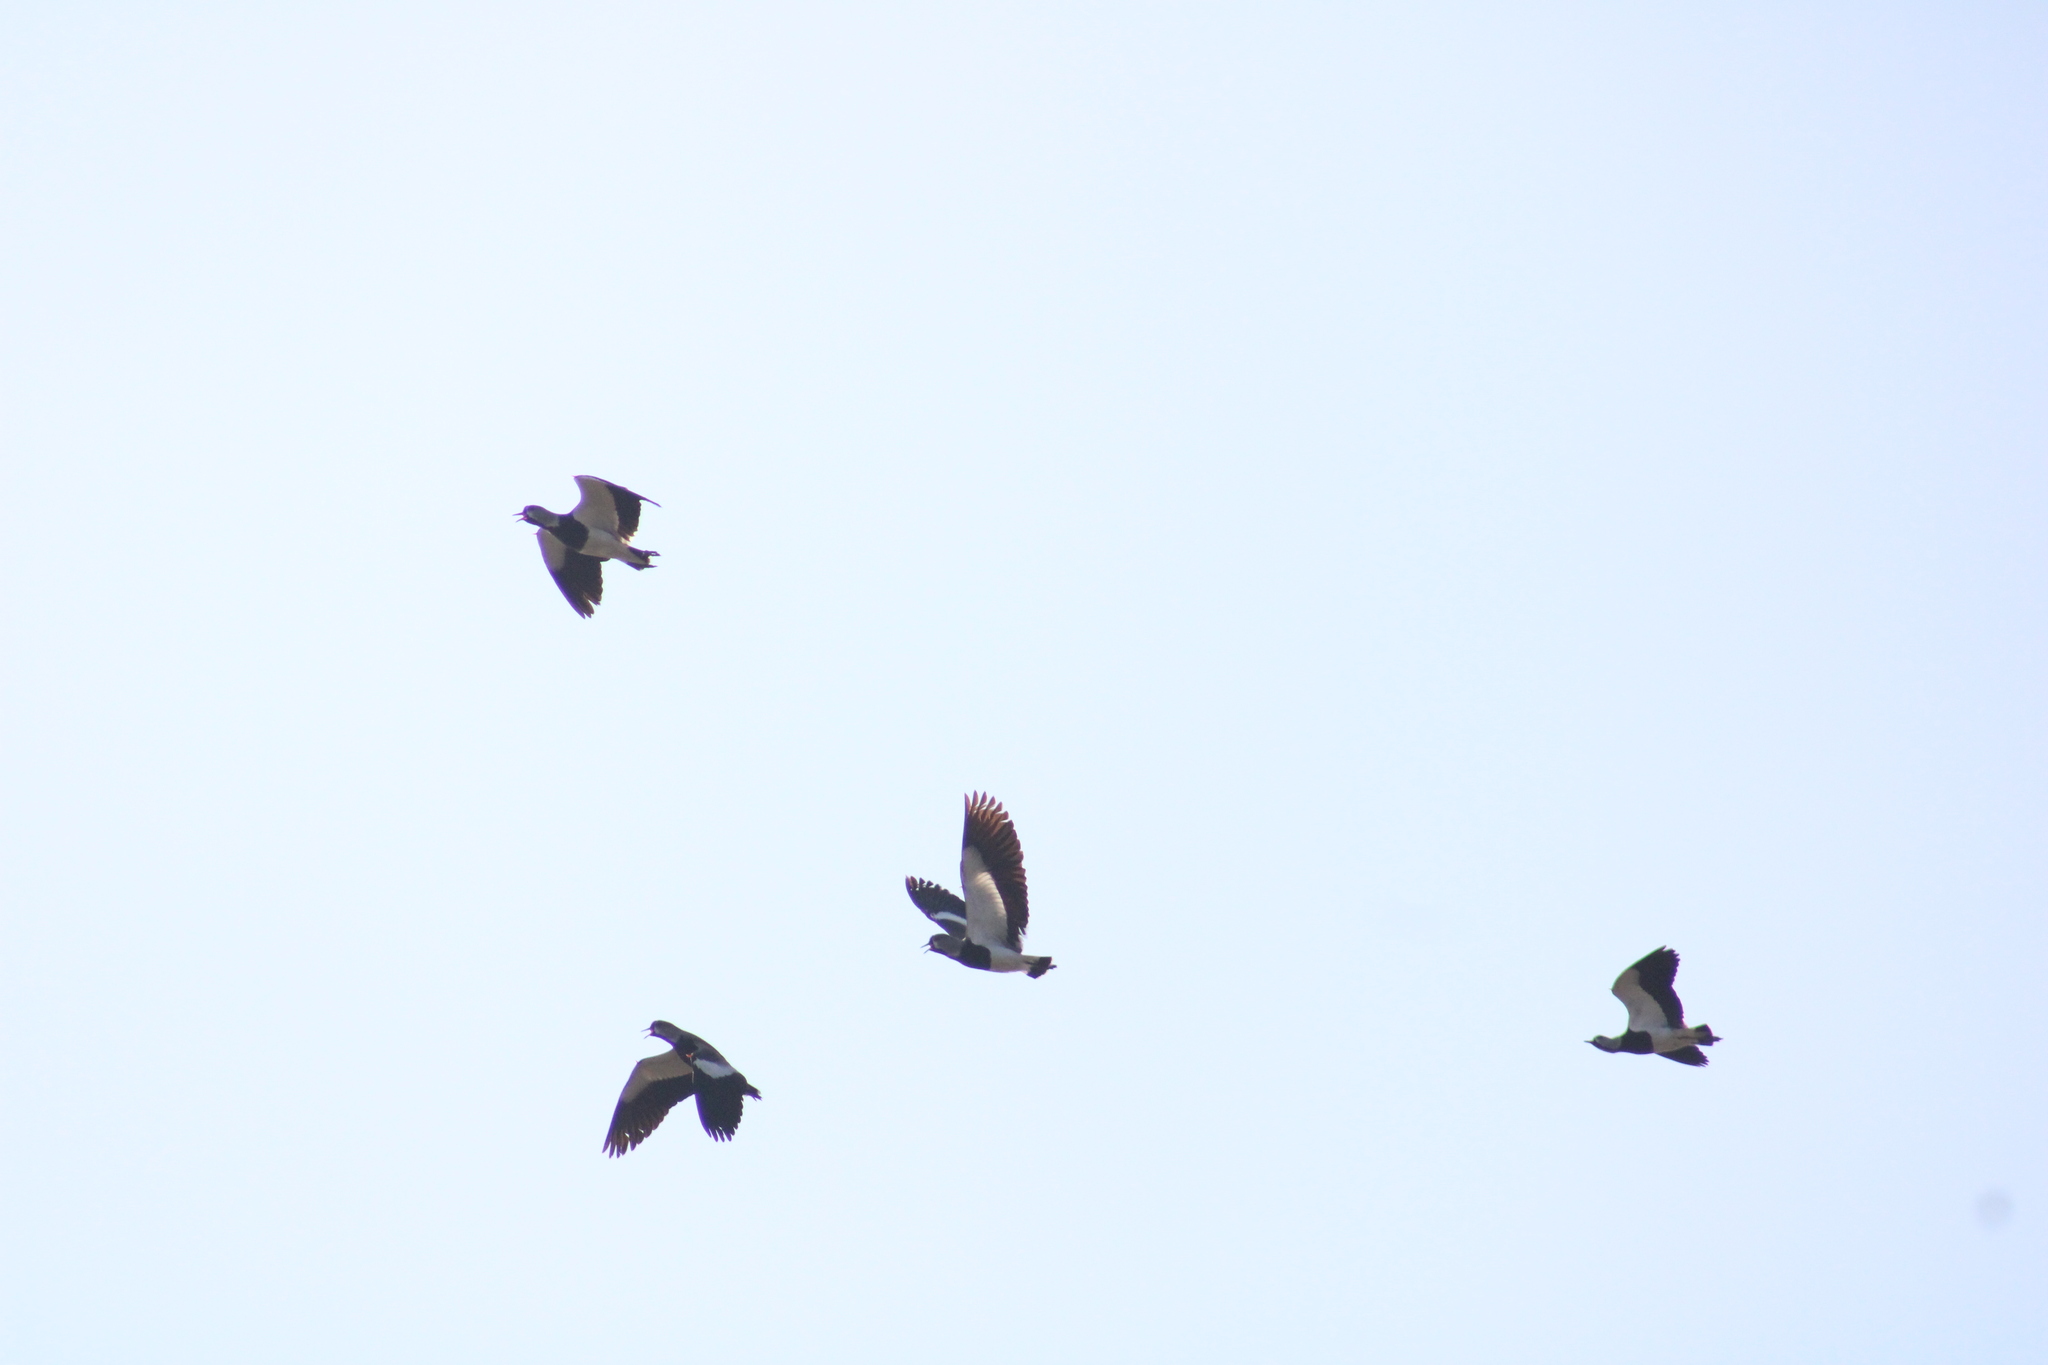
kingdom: Animalia
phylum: Chordata
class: Aves
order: Charadriiformes
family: Charadriidae
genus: Vanellus
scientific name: Vanellus chilensis
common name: Southern lapwing
